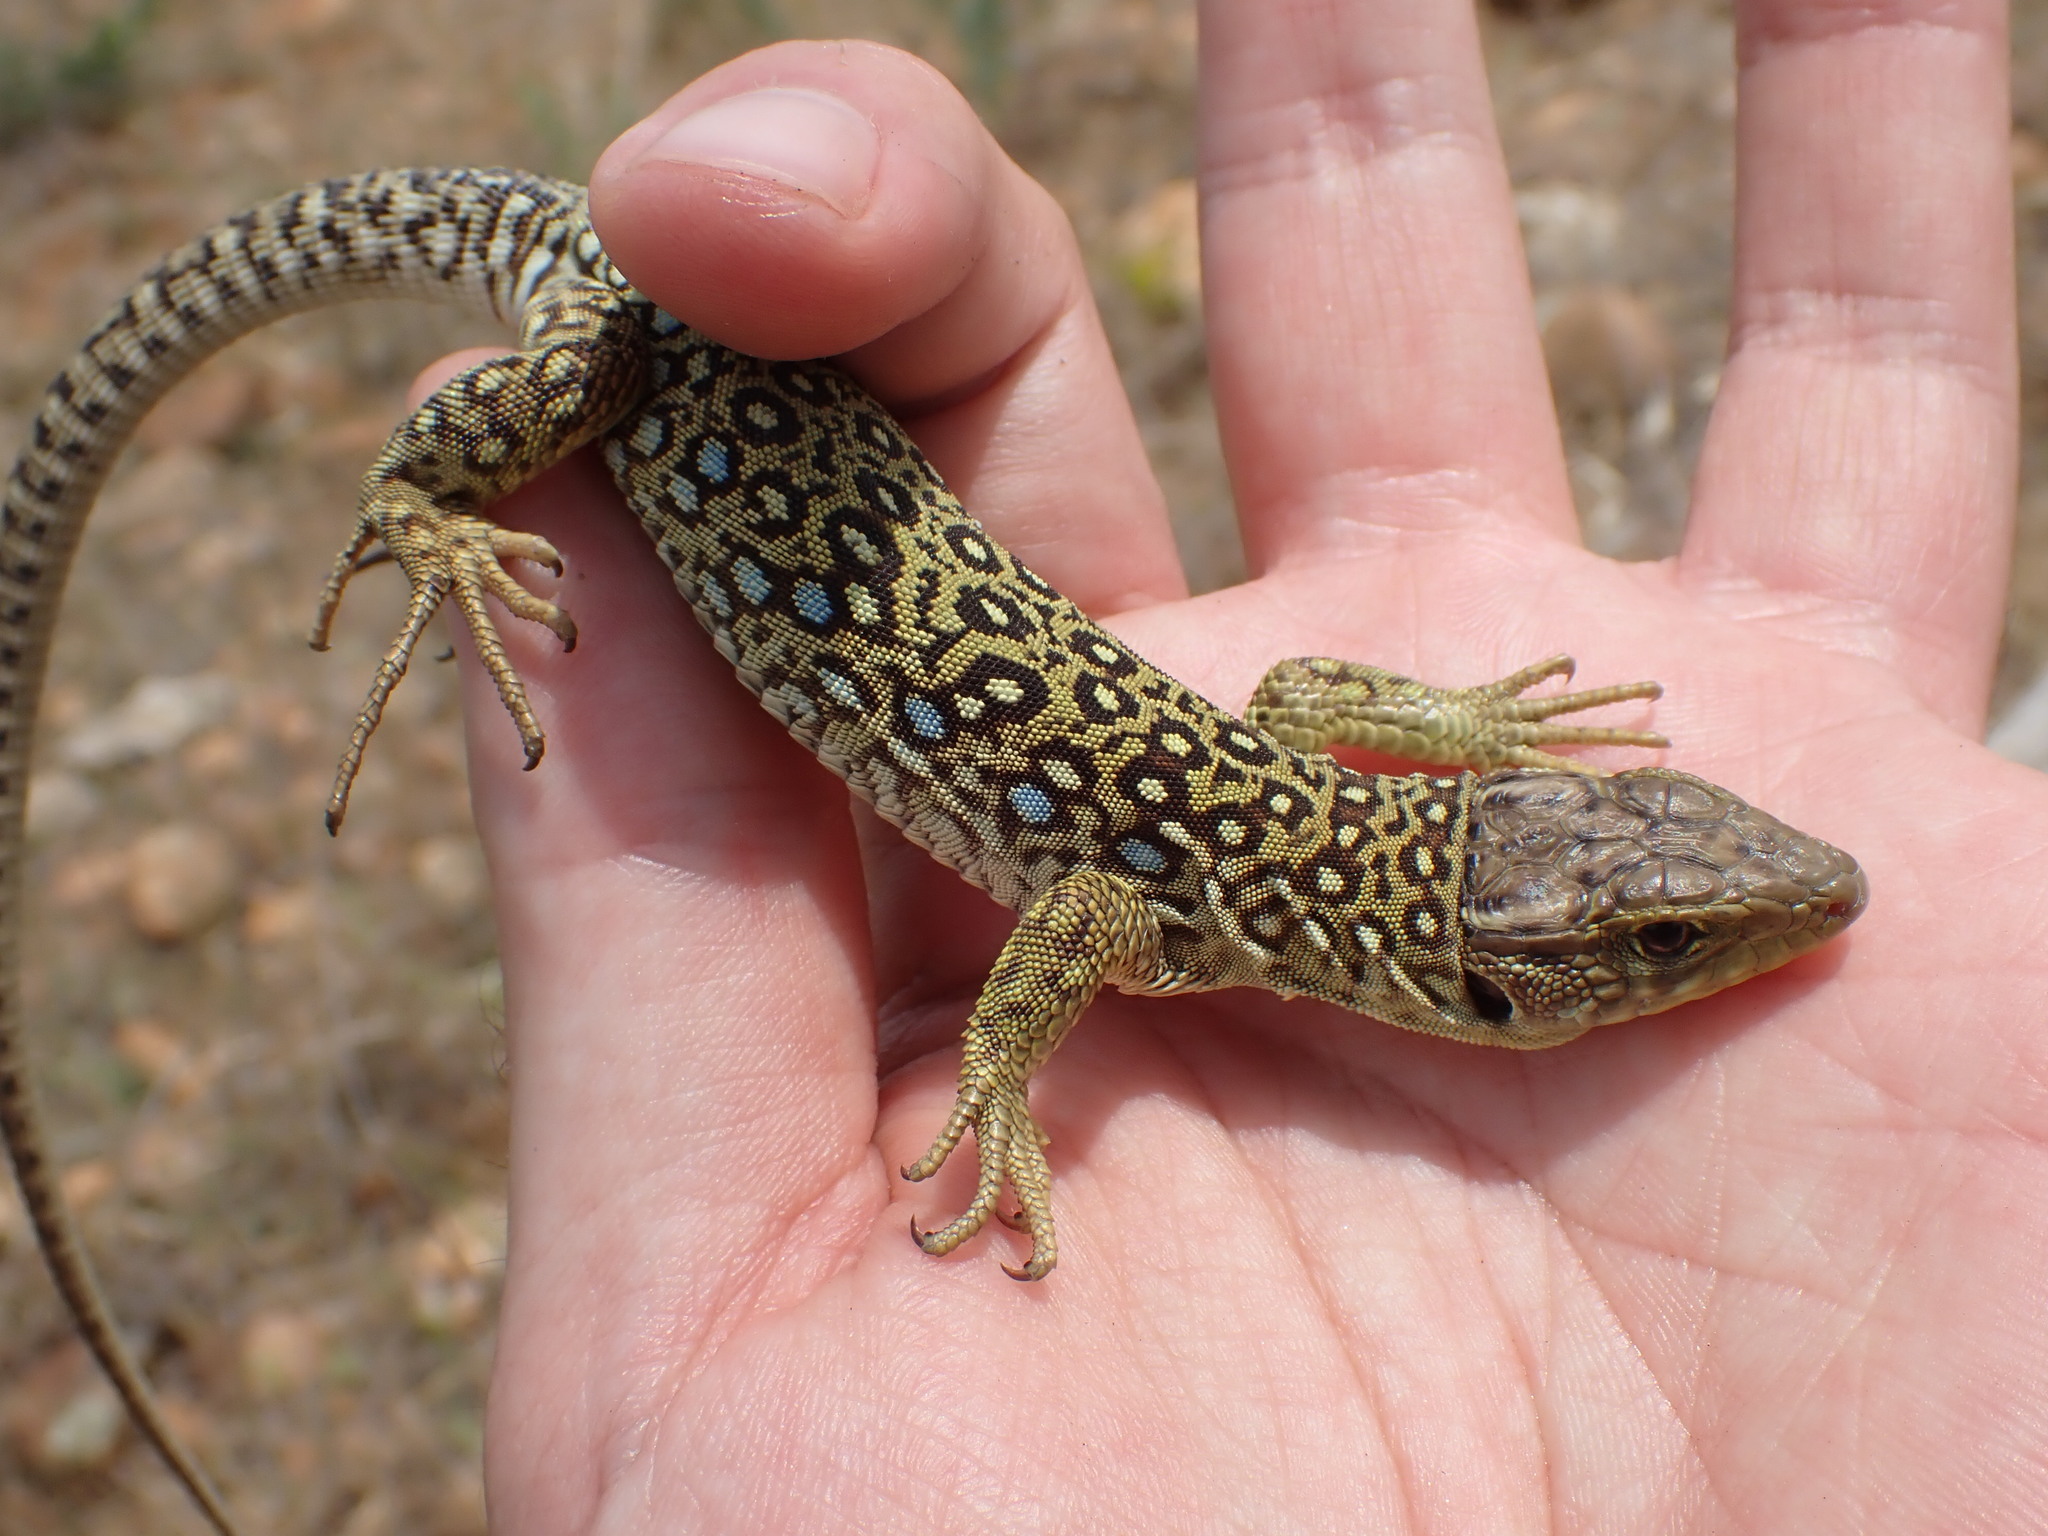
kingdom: Animalia
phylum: Chordata
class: Squamata
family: Lacertidae
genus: Timon
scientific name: Timon lepidus
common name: Ocellated lizard
